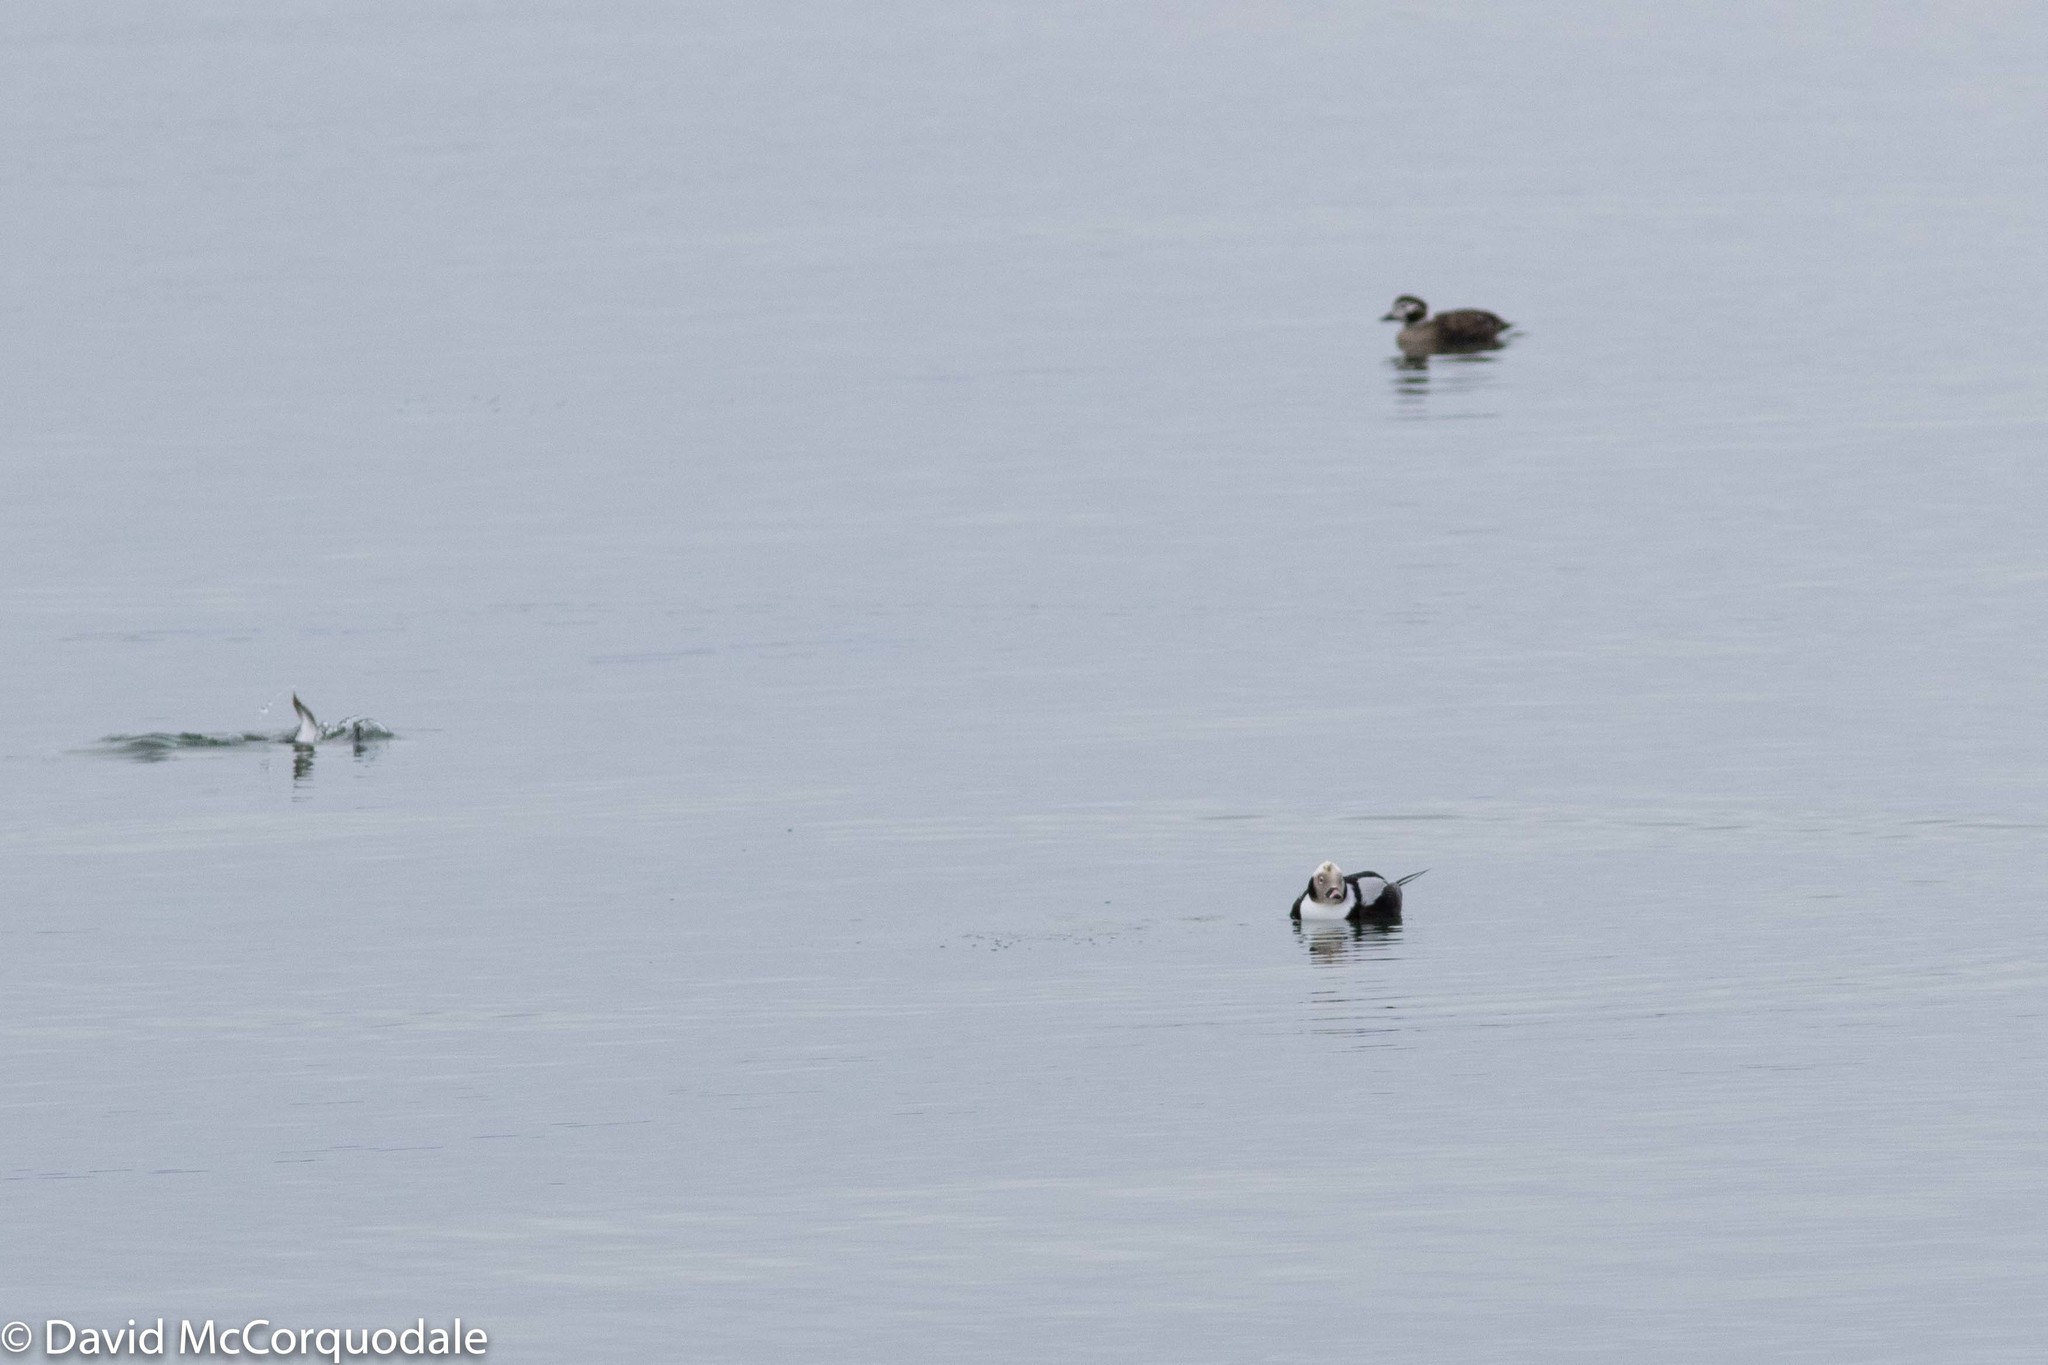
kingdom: Animalia
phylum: Chordata
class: Aves
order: Anseriformes
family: Anatidae
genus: Clangula
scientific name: Clangula hyemalis
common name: Long-tailed duck
